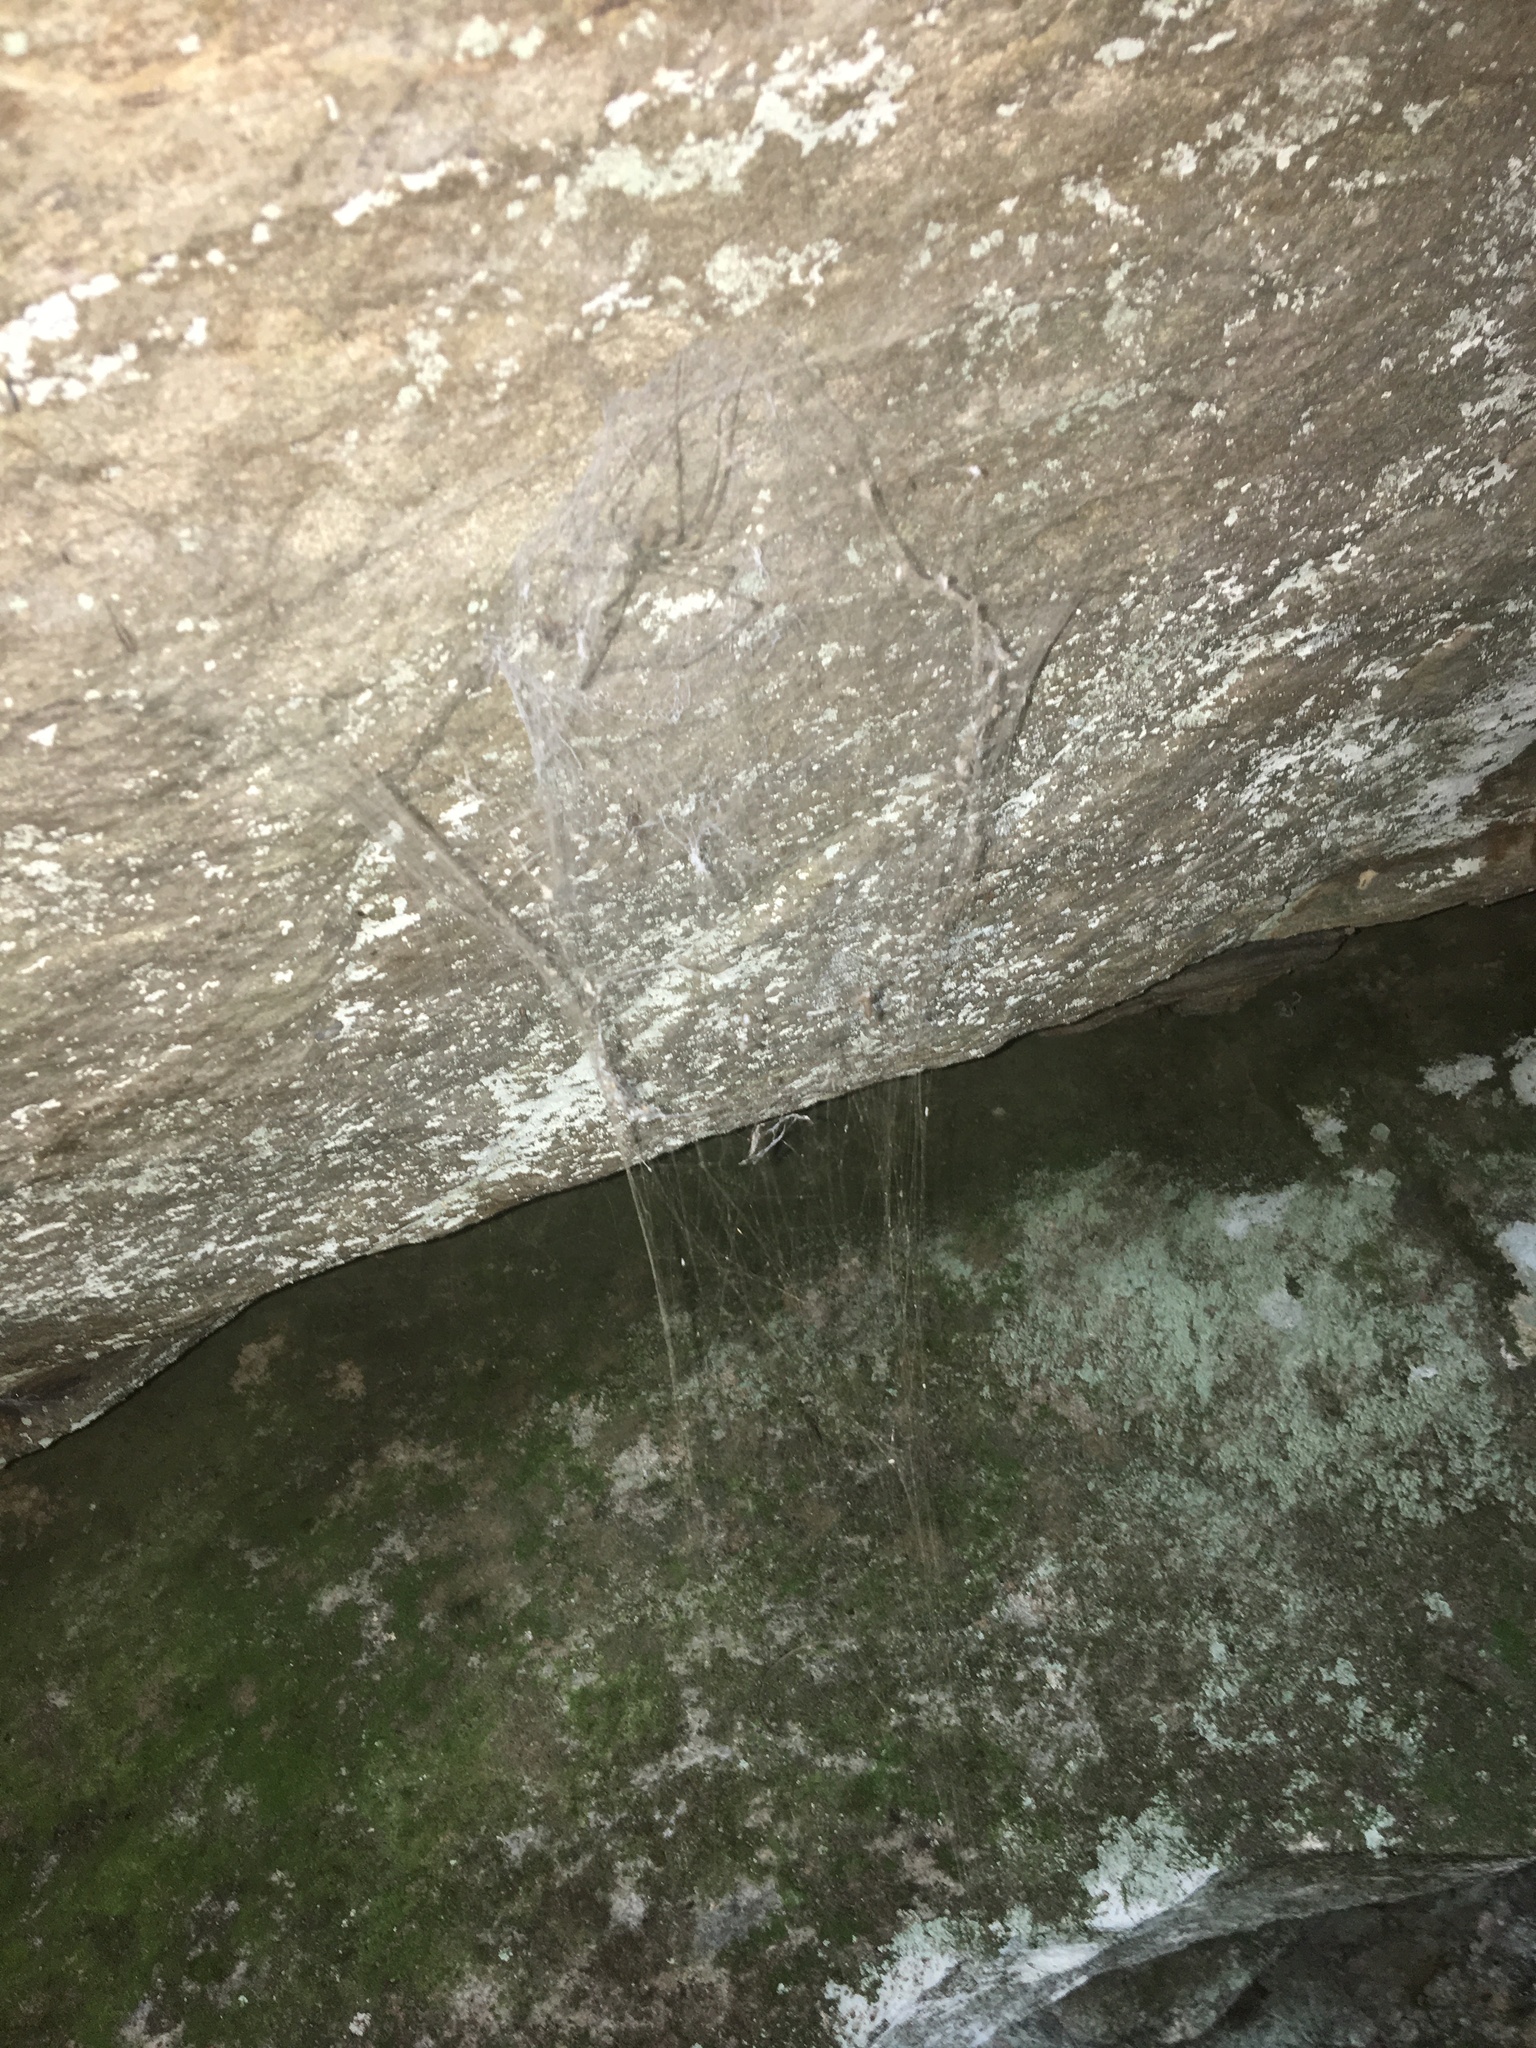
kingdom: Animalia
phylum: Arthropoda
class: Arachnida
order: Araneae
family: Hypochilidae
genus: Hypochilus
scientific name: Hypochilus pococki
